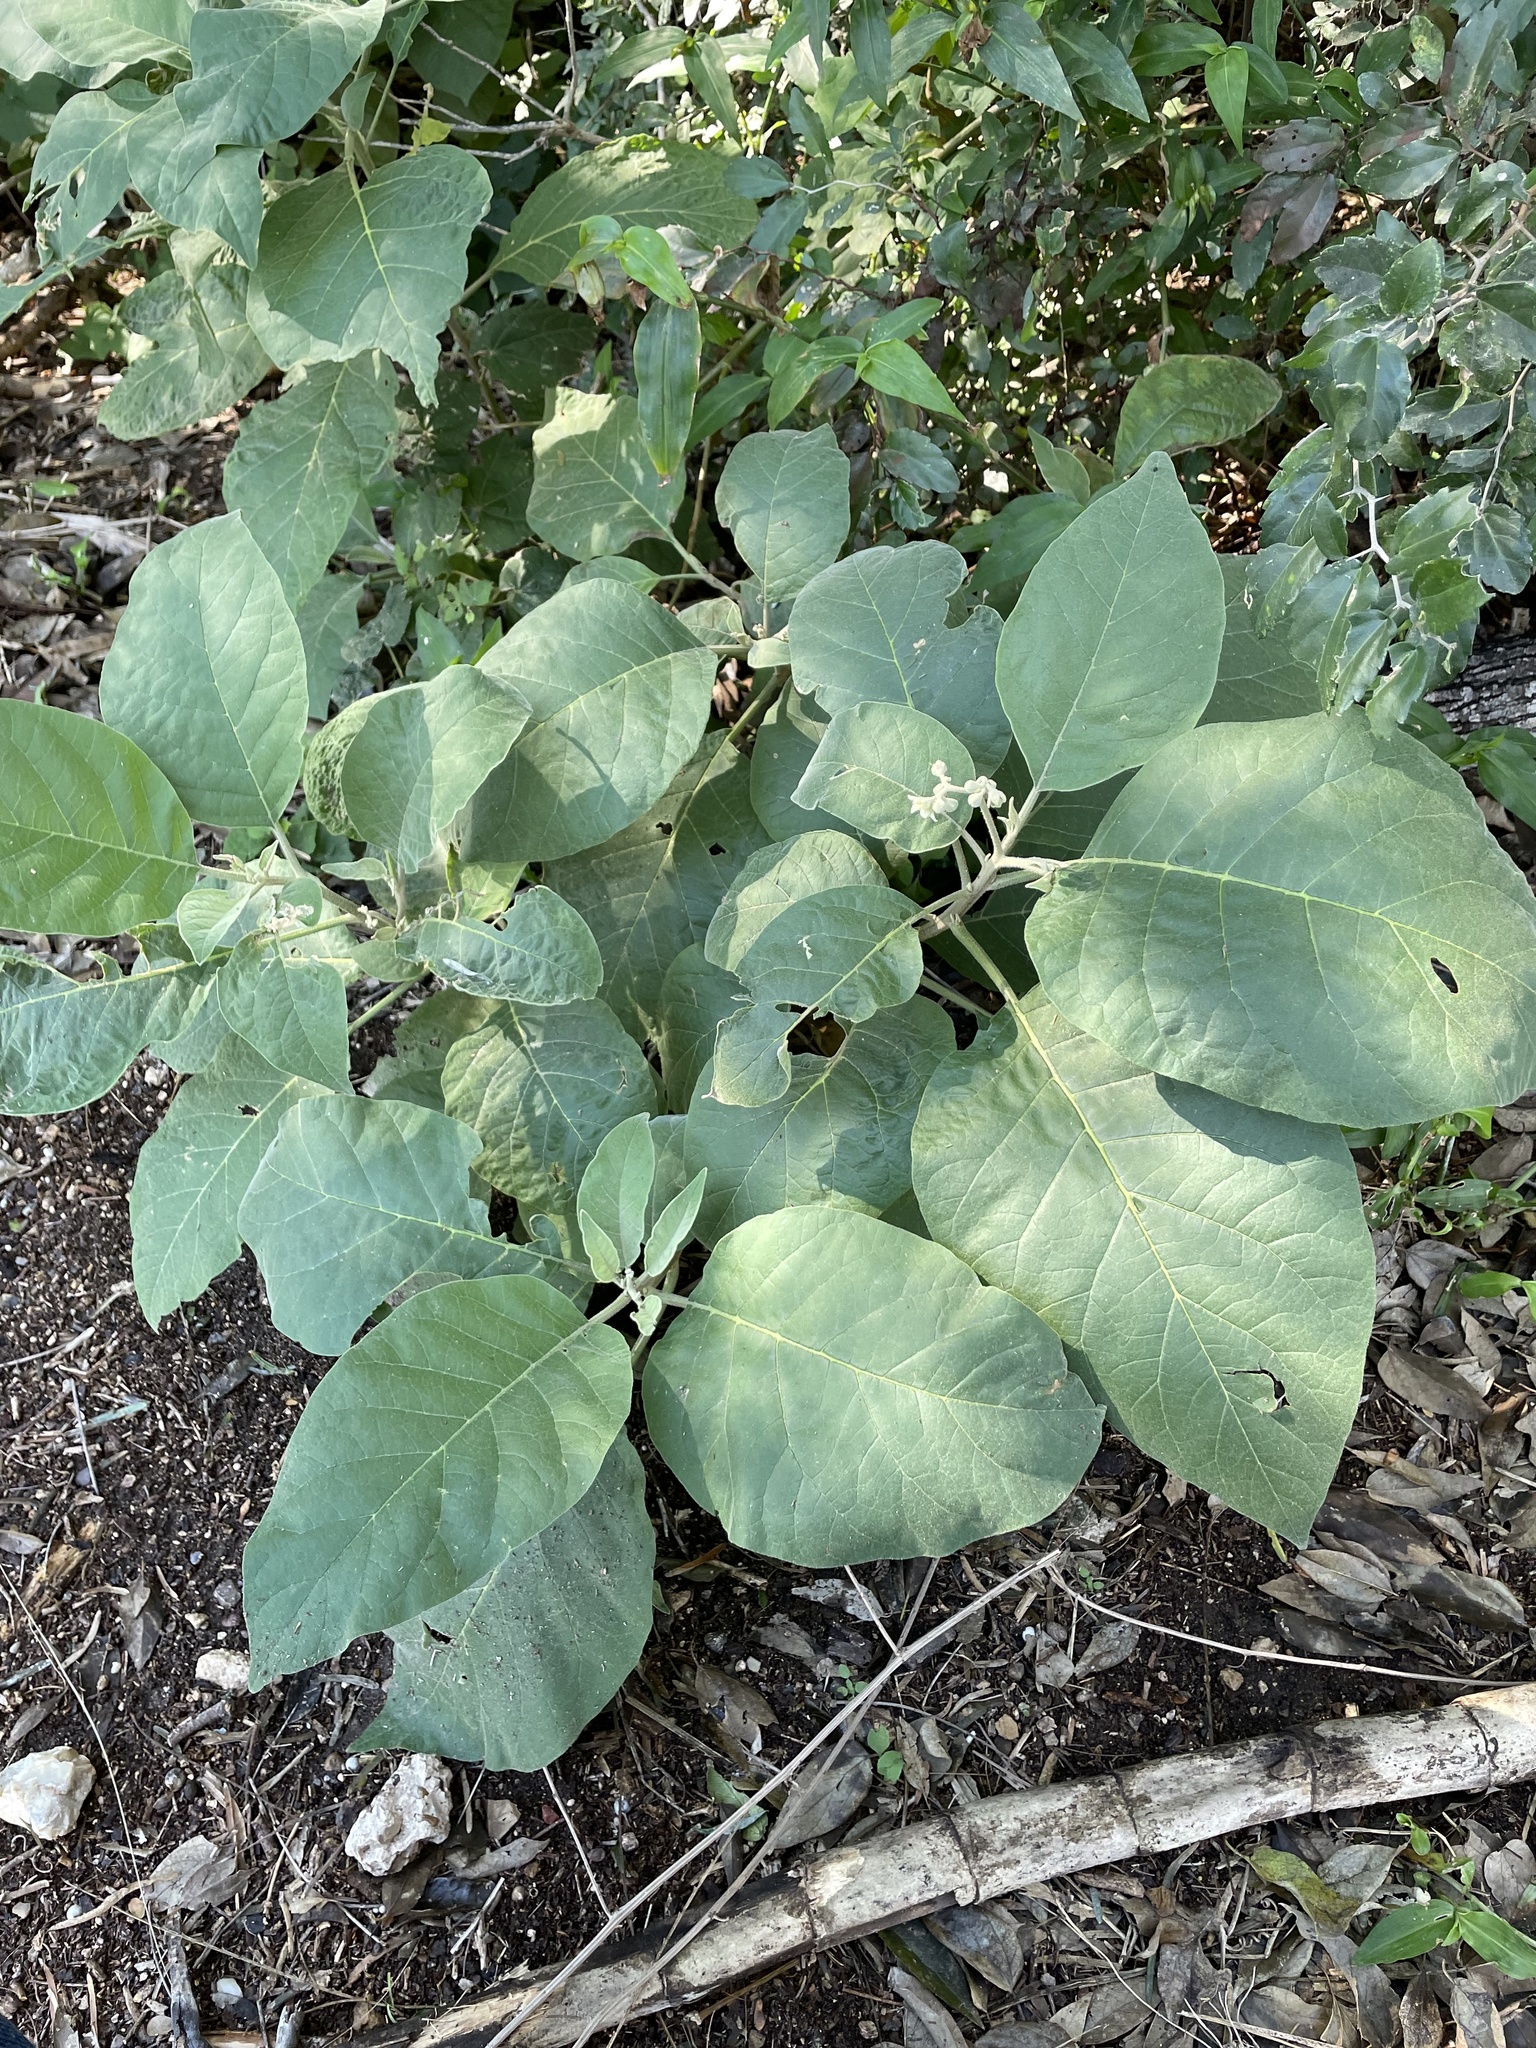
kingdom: Plantae
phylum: Tracheophyta
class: Magnoliopsida
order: Solanales
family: Solanaceae
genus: Solanum
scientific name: Solanum erianthum
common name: Tobacco-tree
